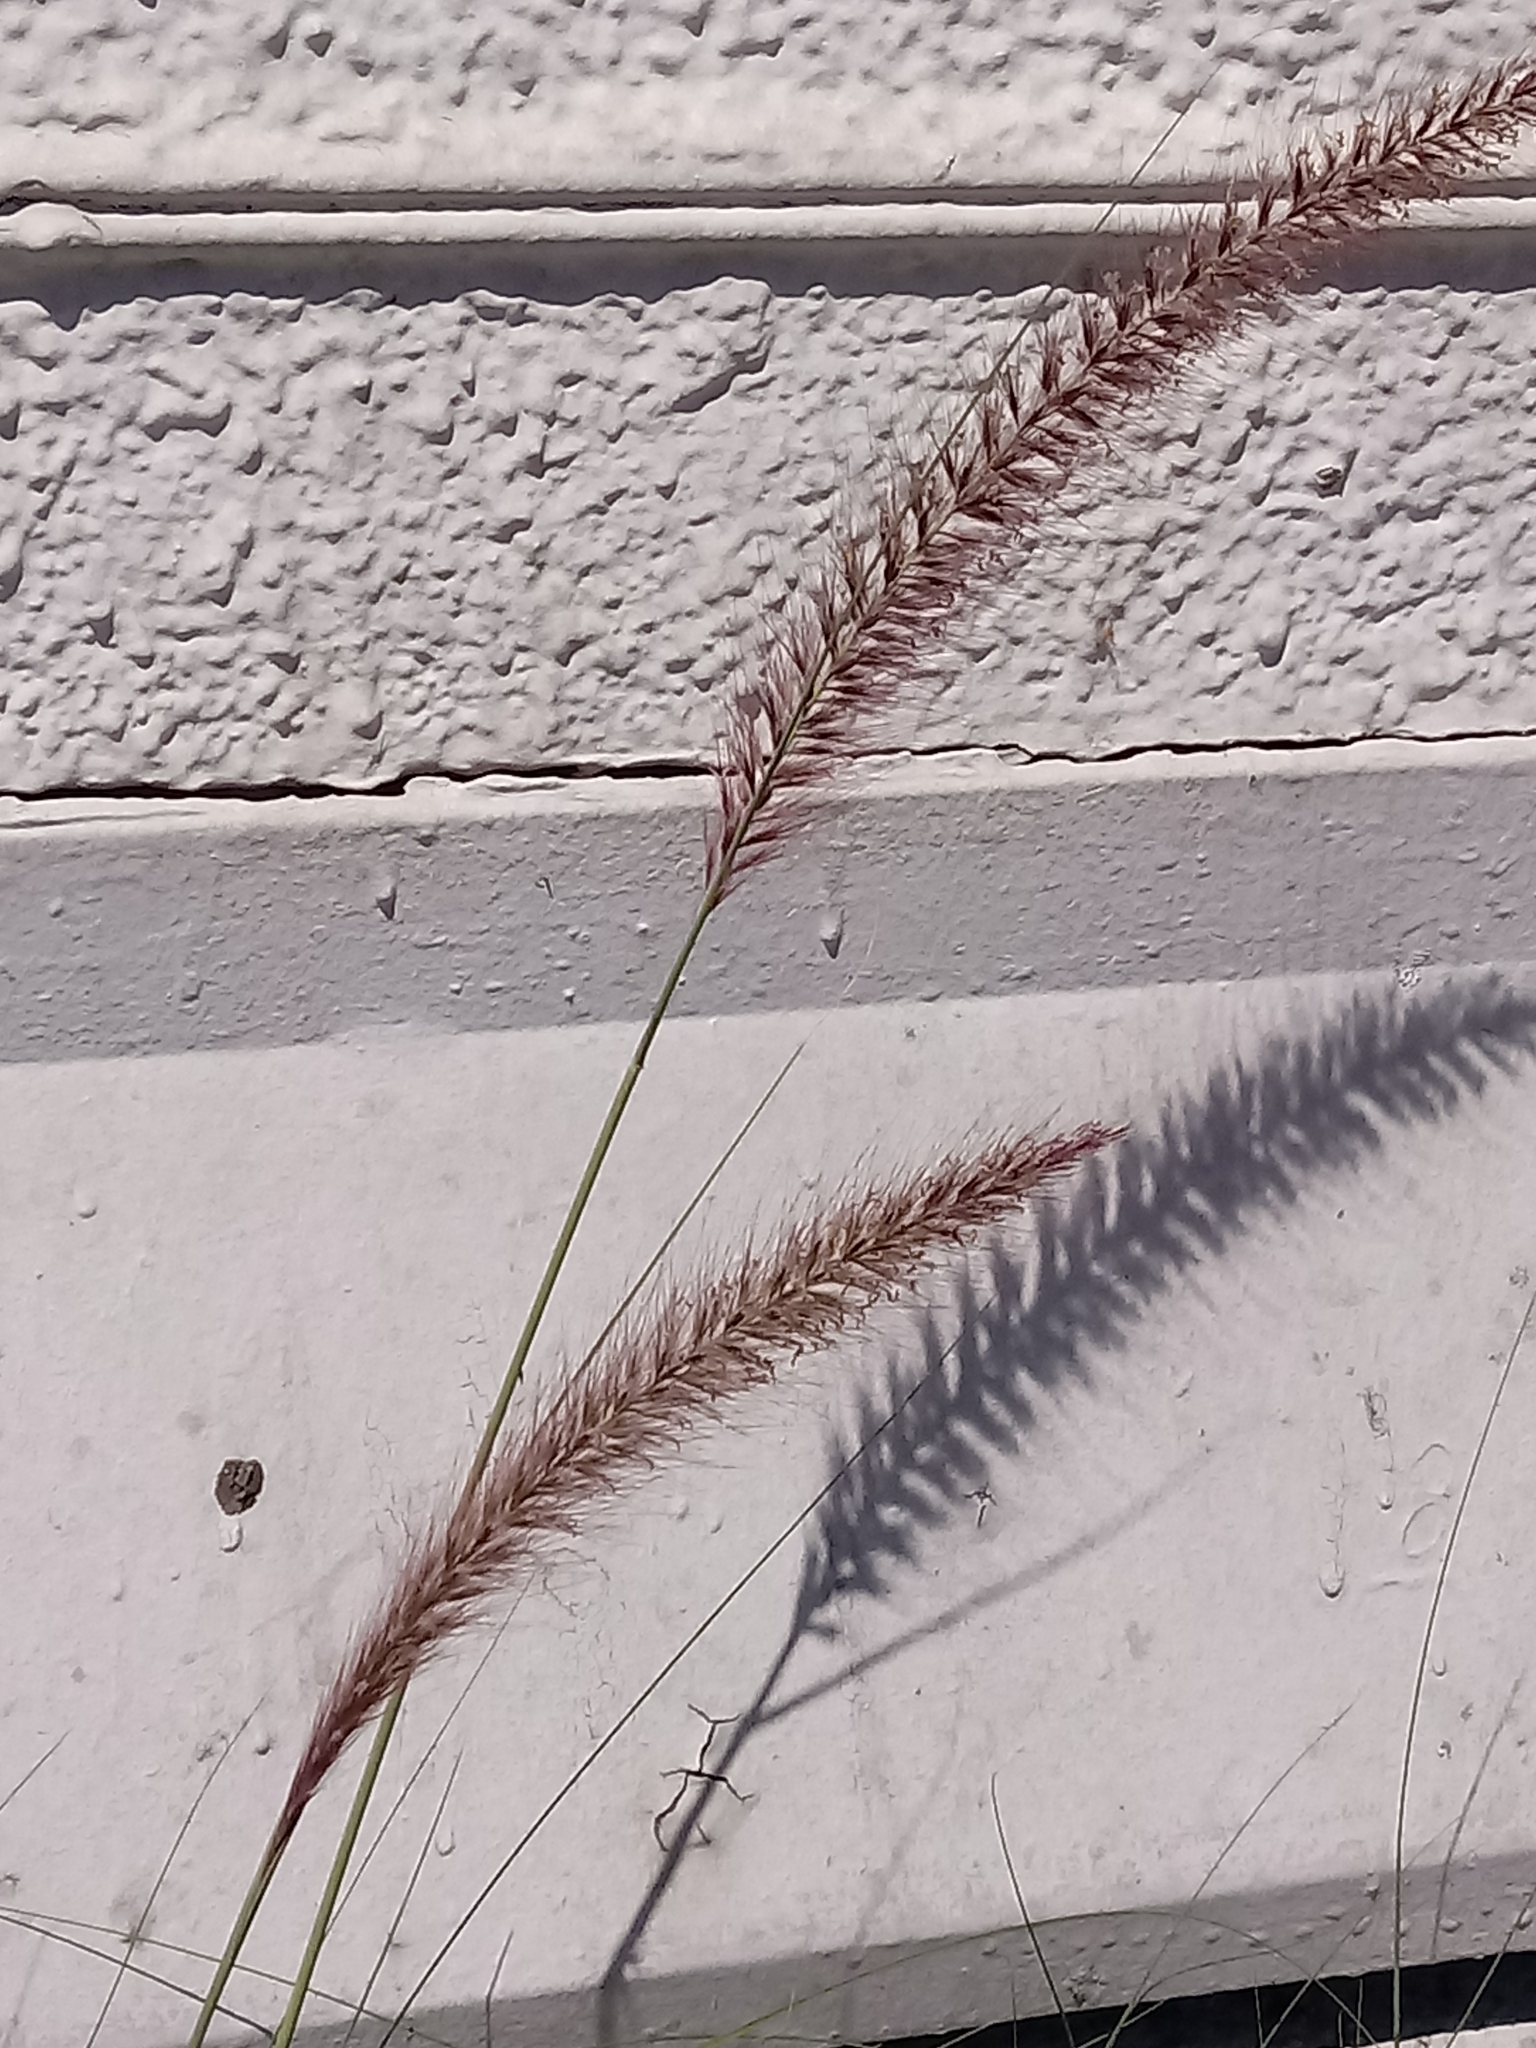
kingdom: Plantae
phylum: Tracheophyta
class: Liliopsida
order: Poales
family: Poaceae
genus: Cenchrus
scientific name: Cenchrus setaceus
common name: Crimson fountaingrass
